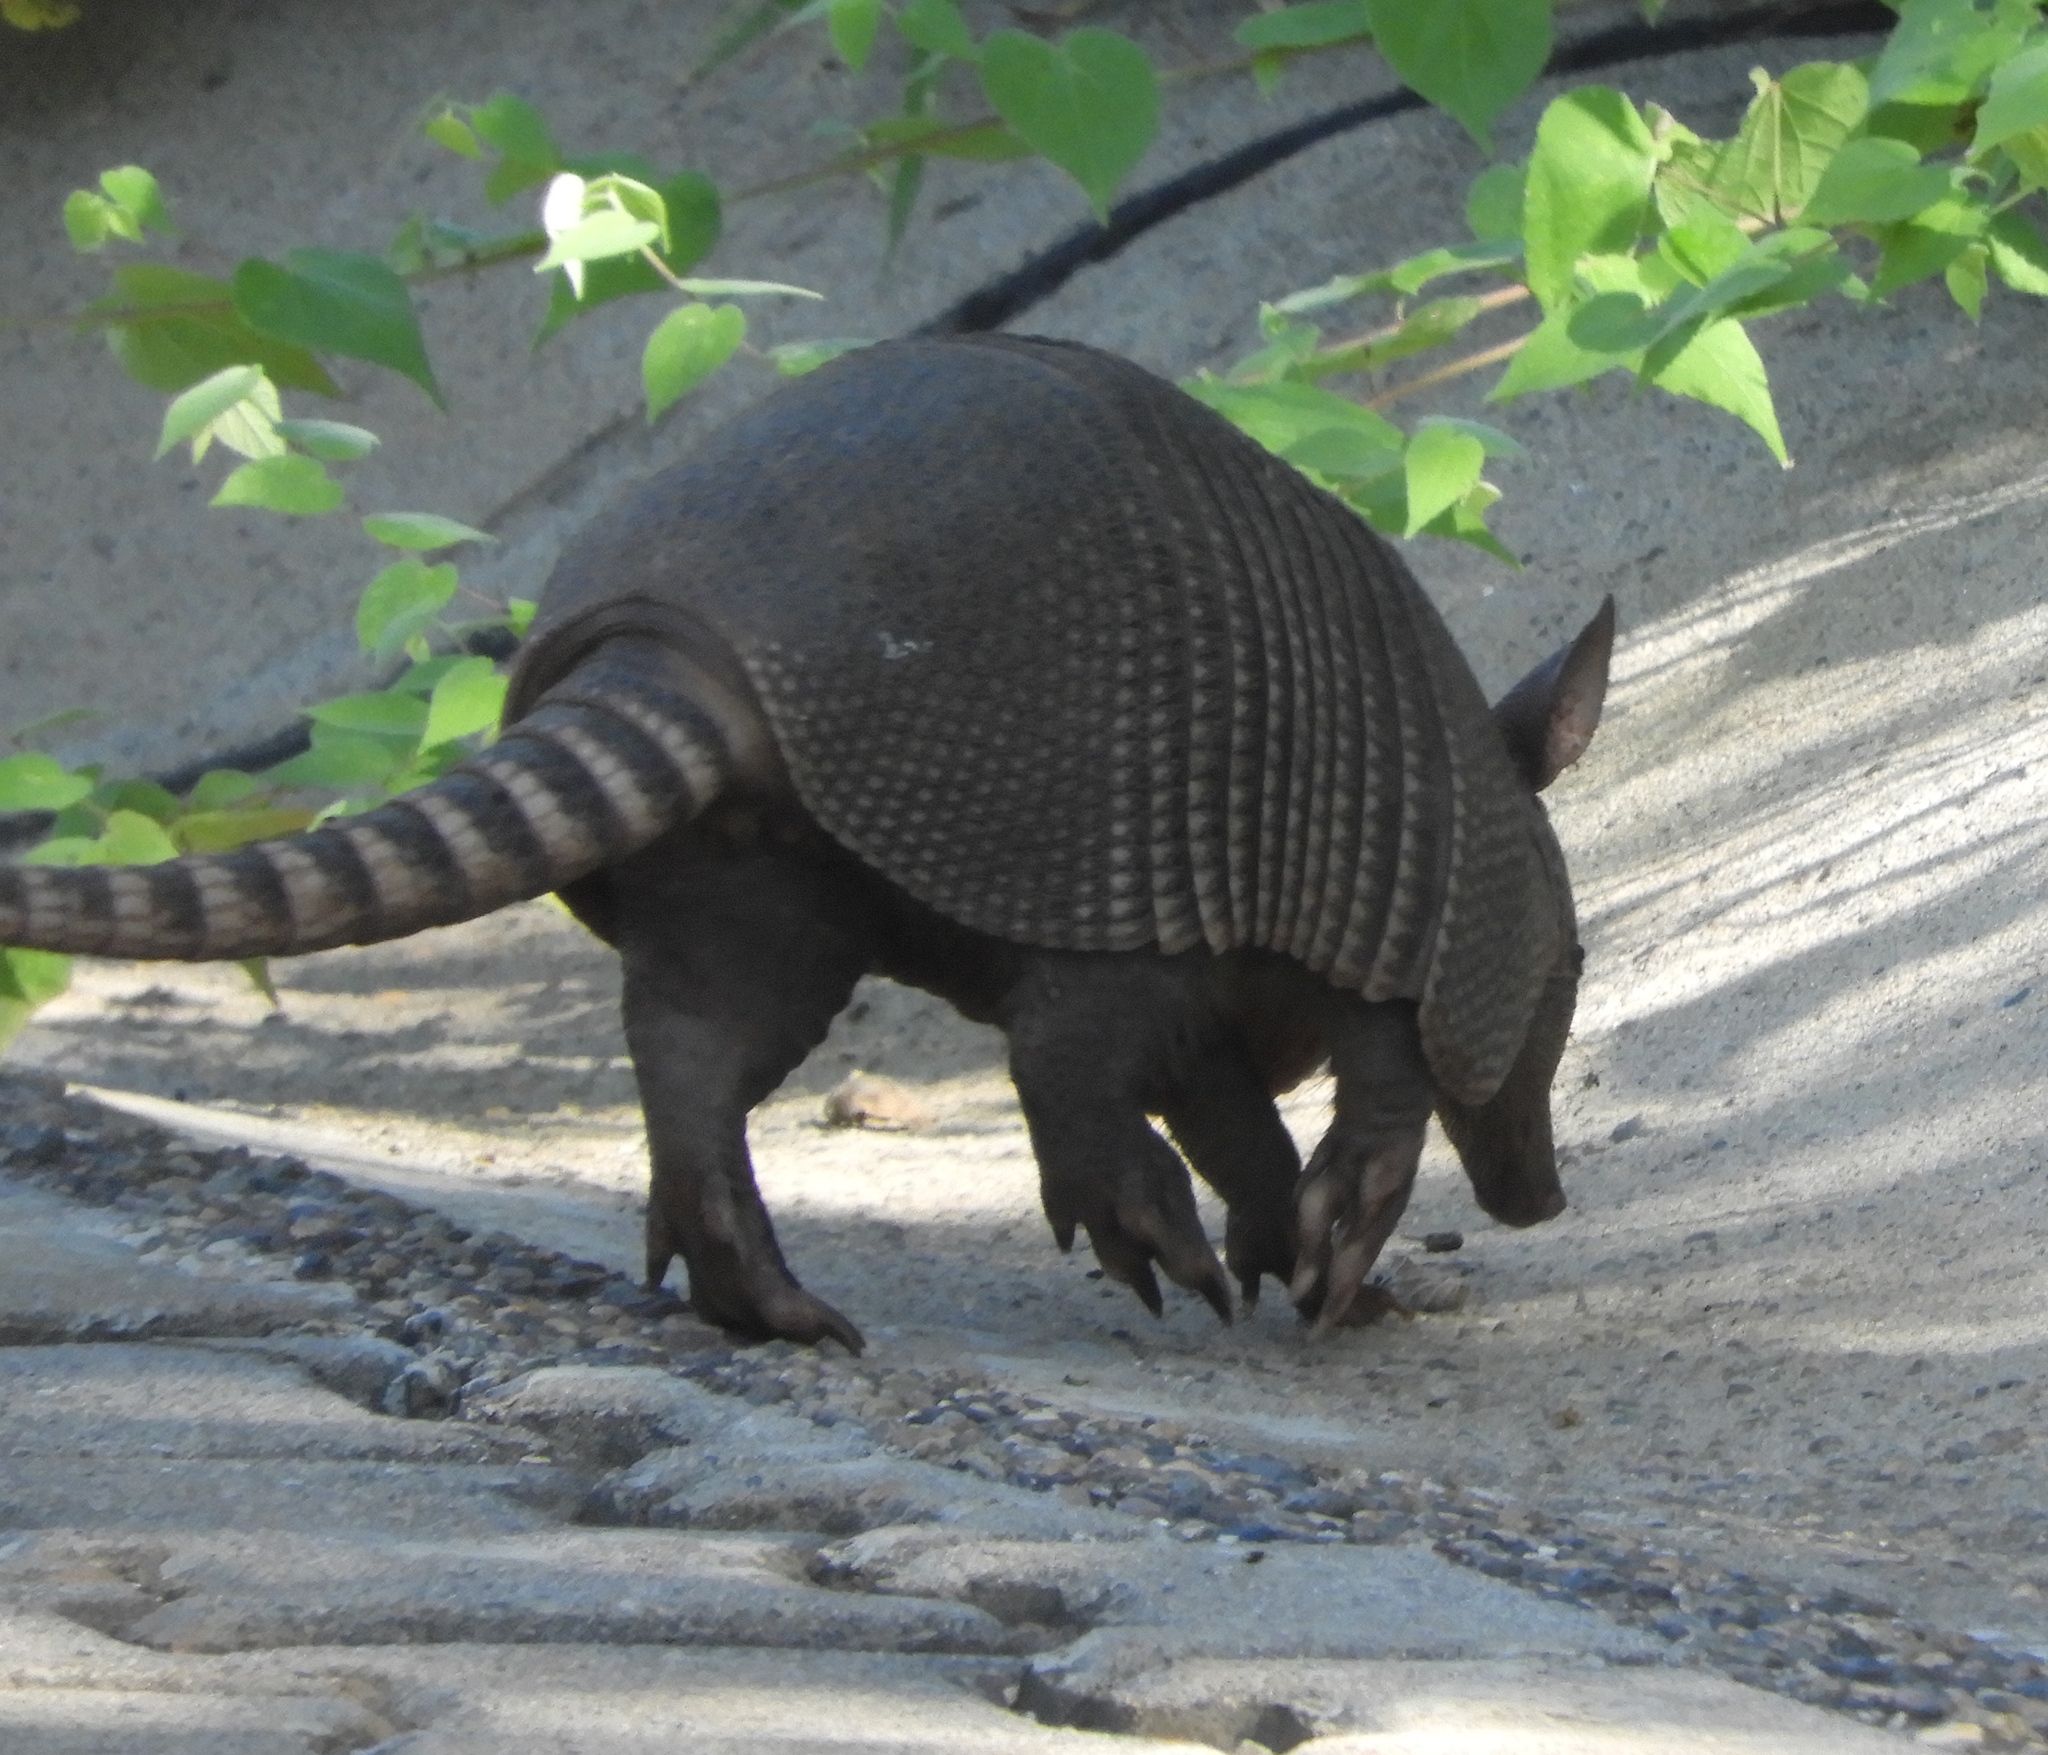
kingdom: Animalia
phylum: Chordata
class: Mammalia
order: Cingulata
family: Dasypodidae
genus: Dasypus
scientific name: Dasypus novemcinctus
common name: Nine-banded armadillo
